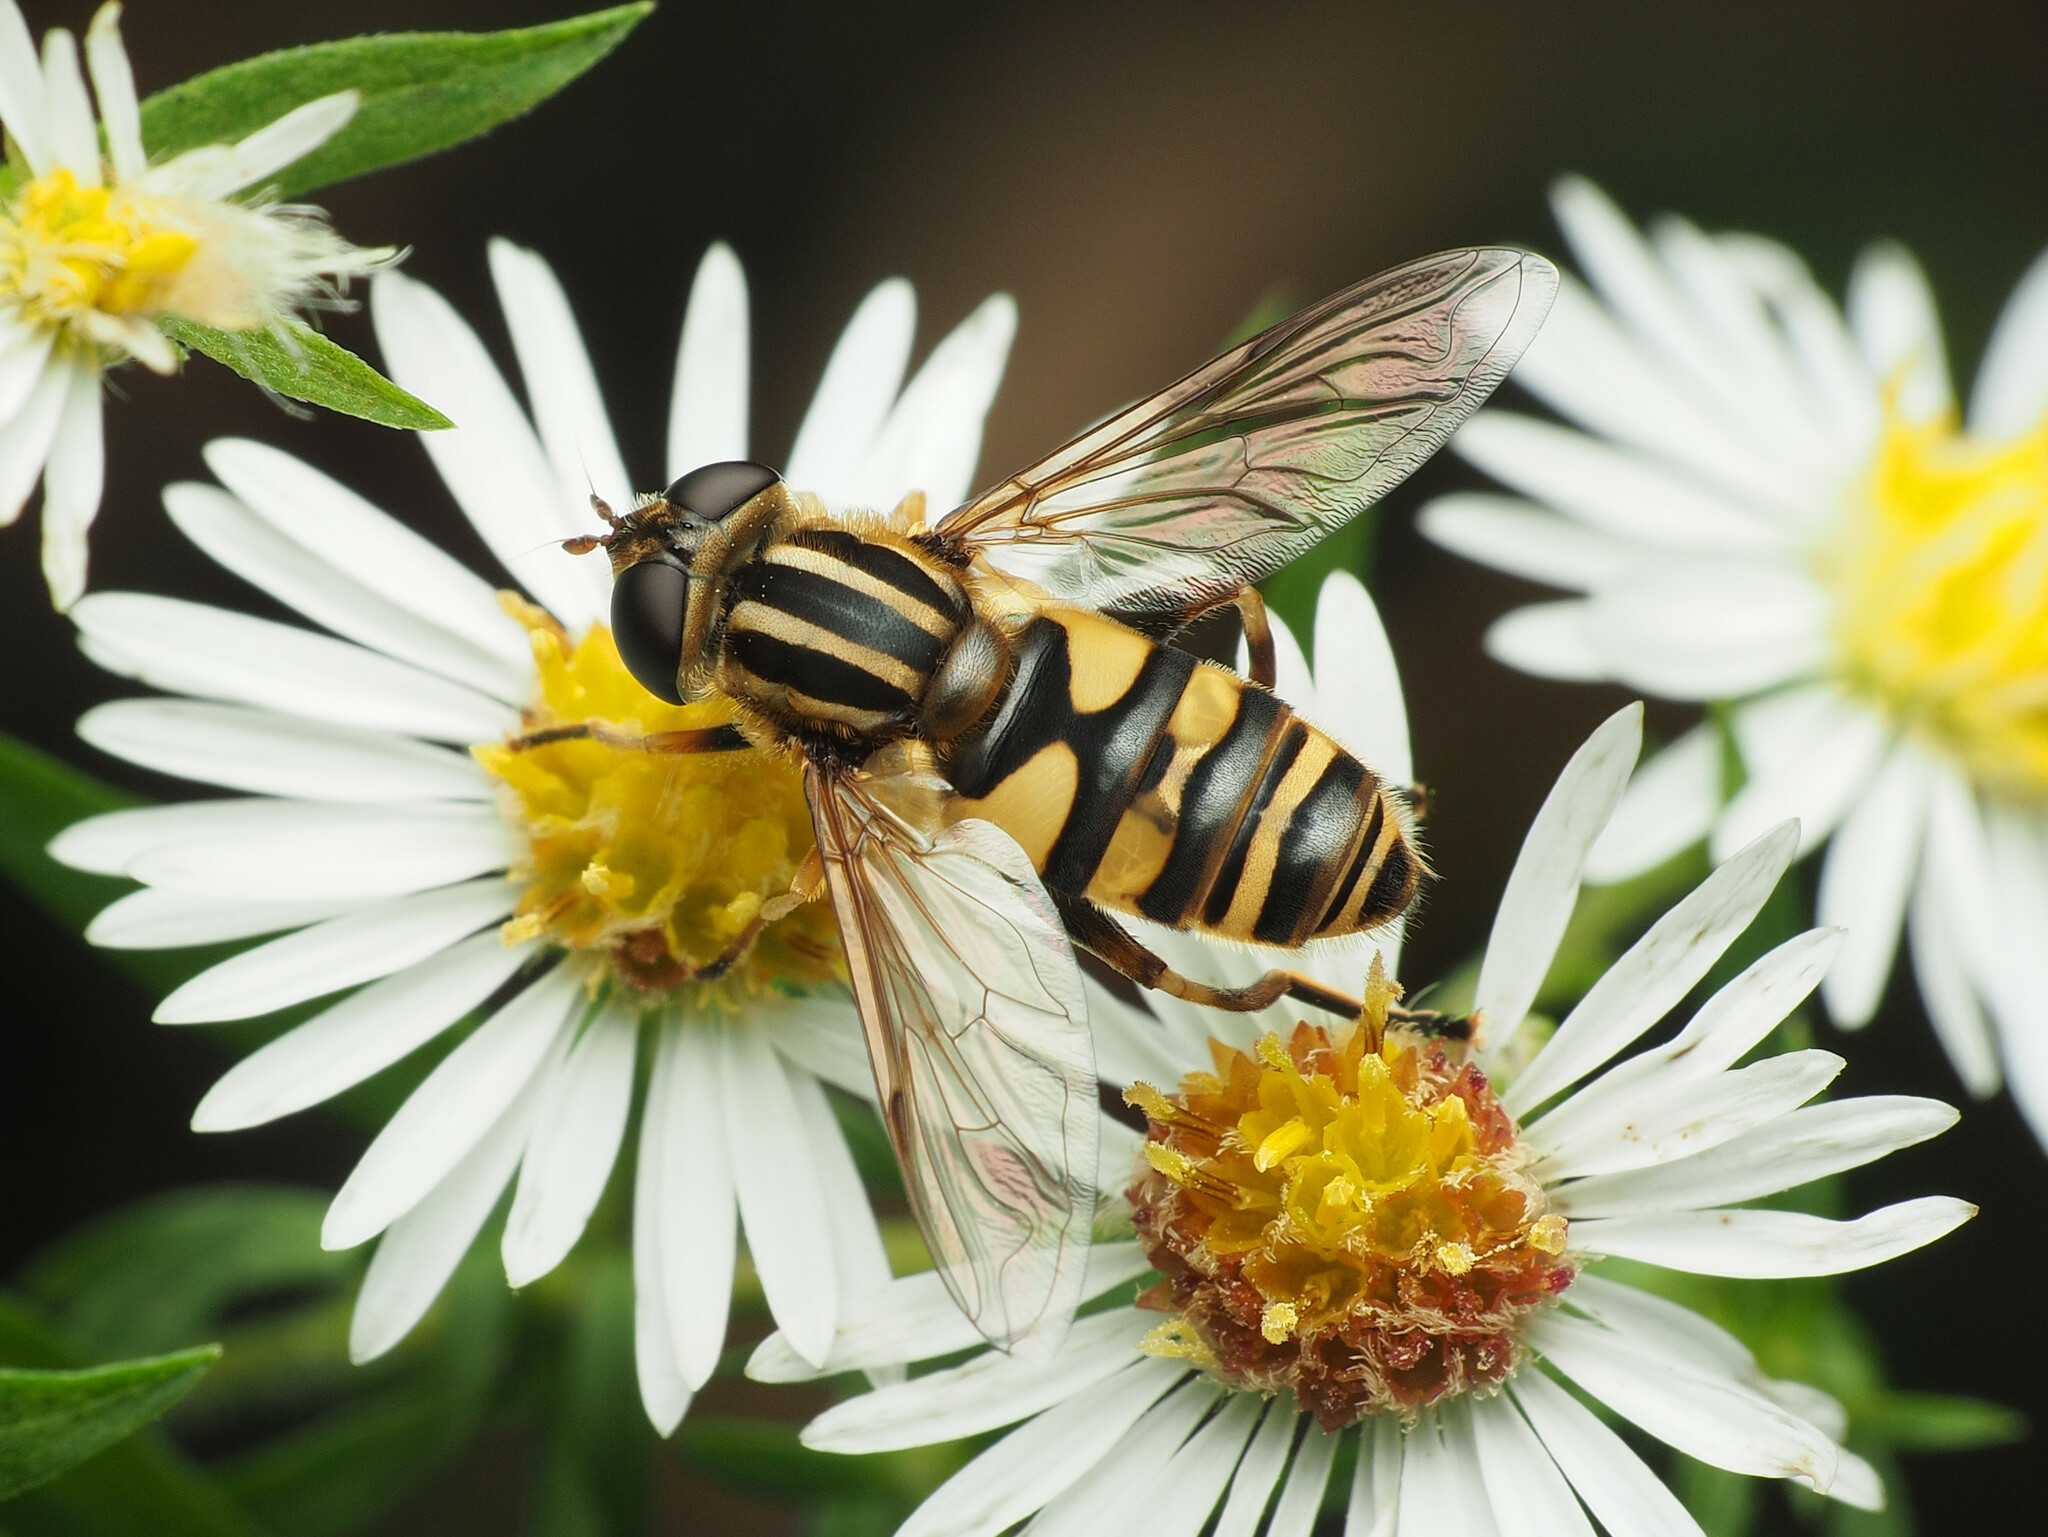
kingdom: Animalia
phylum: Arthropoda
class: Insecta
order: Diptera
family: Syrphidae
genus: Helophilus
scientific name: Helophilus fasciatus
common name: Narrow-headed marsh fly
